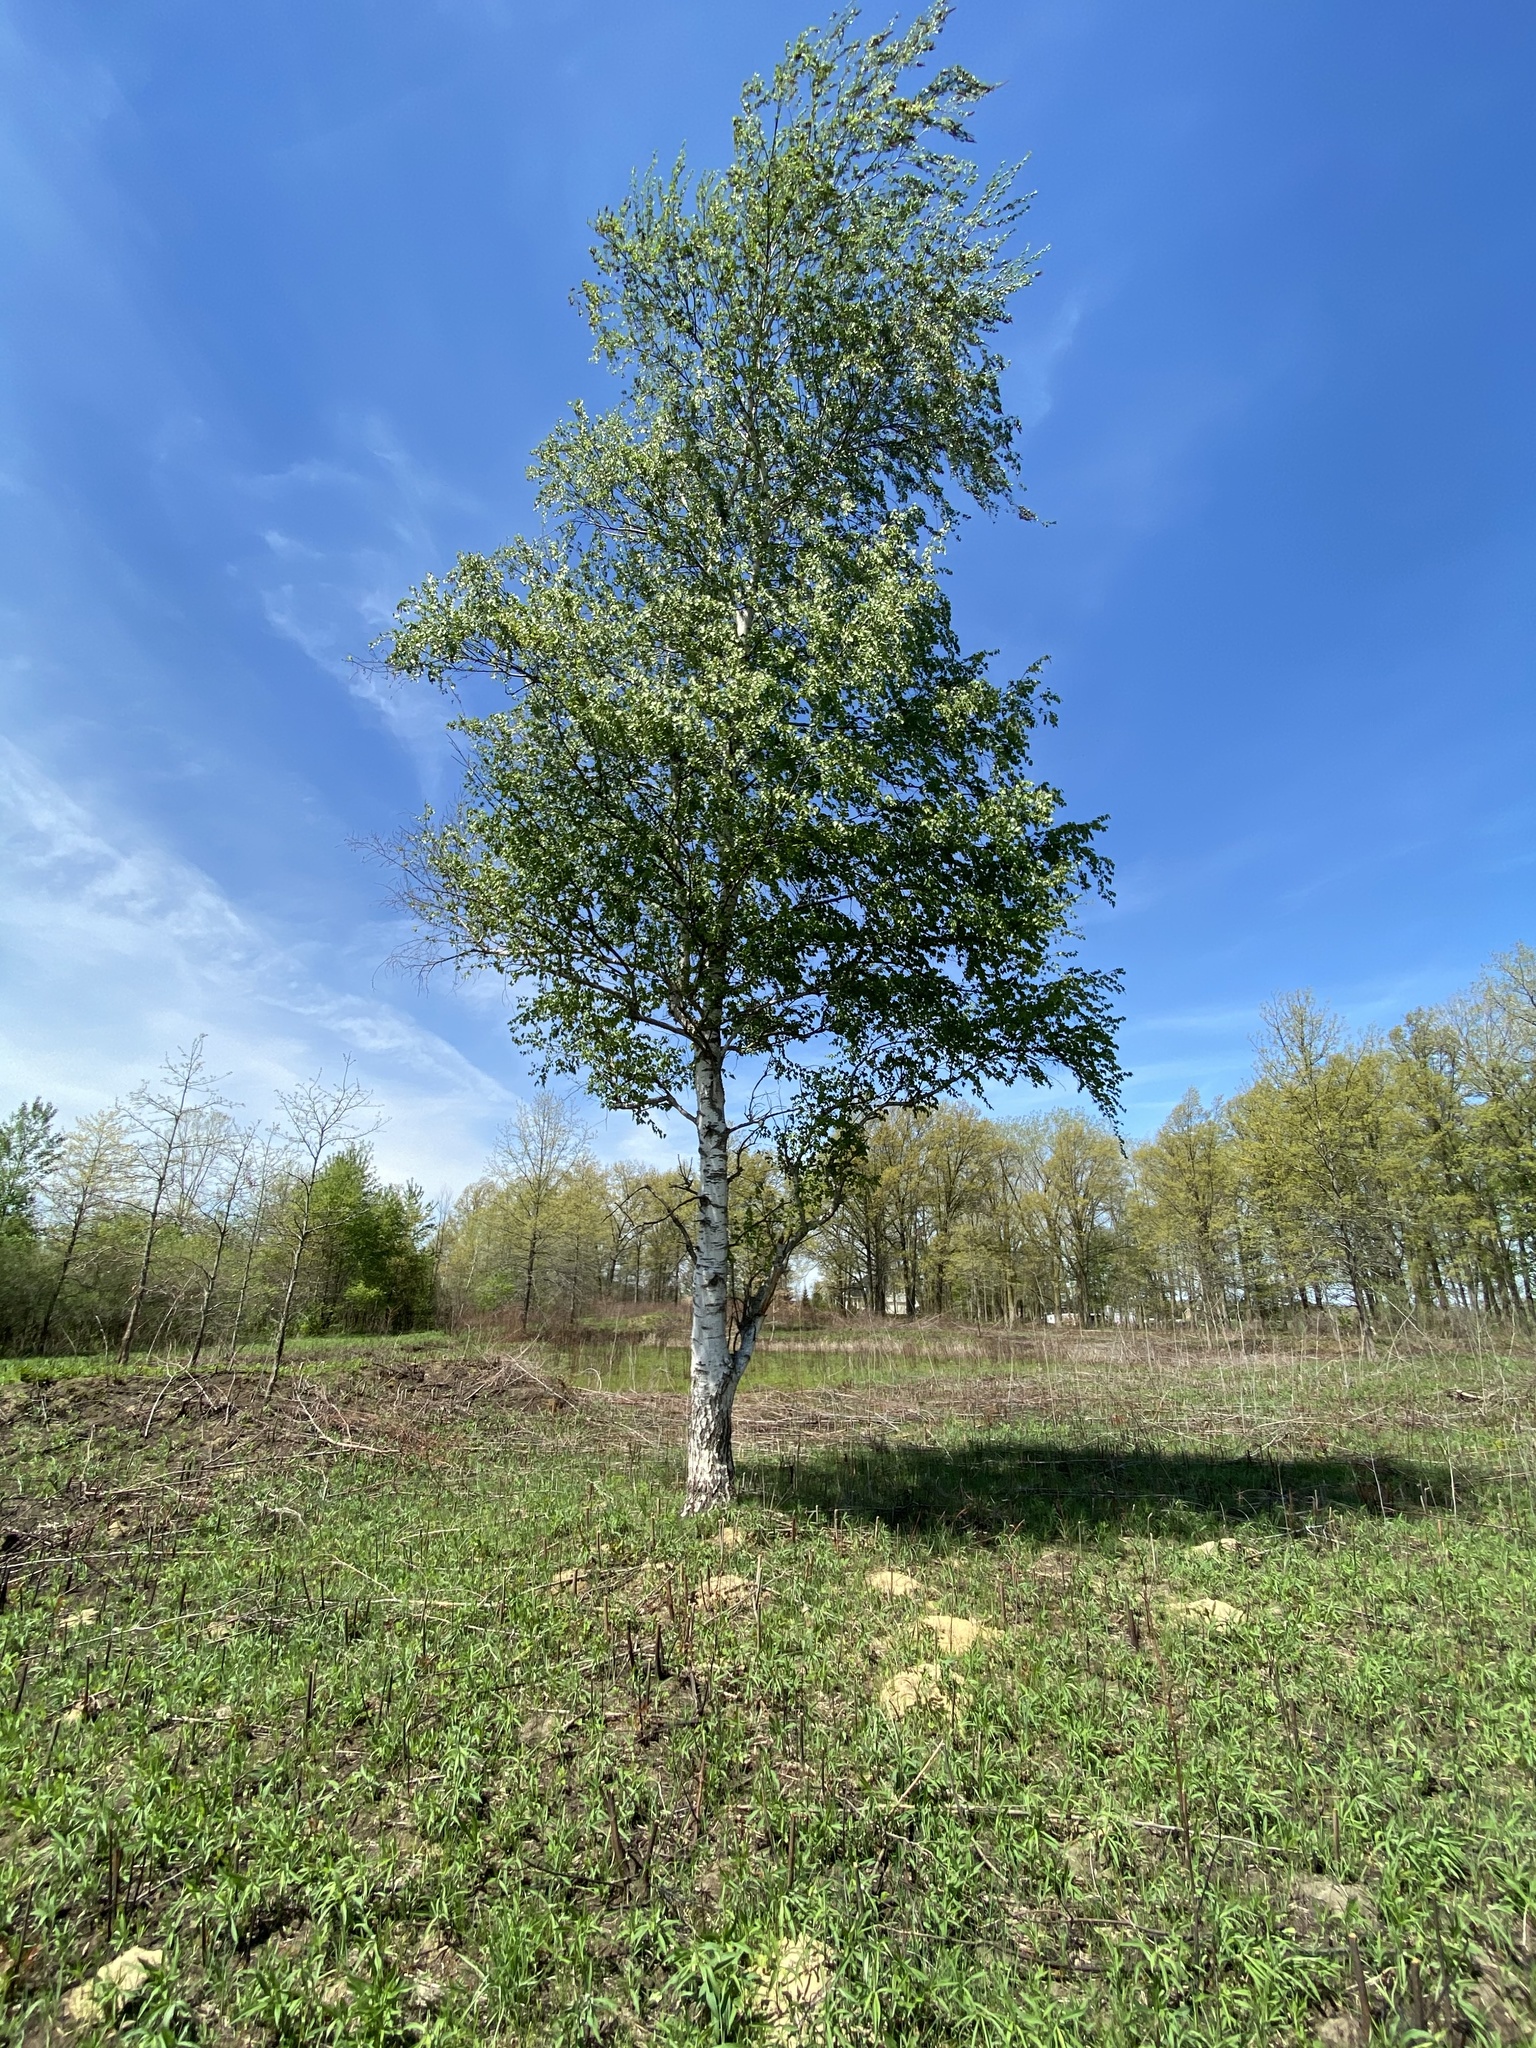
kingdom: Plantae
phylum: Tracheophyta
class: Magnoliopsida
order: Fagales
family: Betulaceae
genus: Betula
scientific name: Betula pendula
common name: Silver birch
